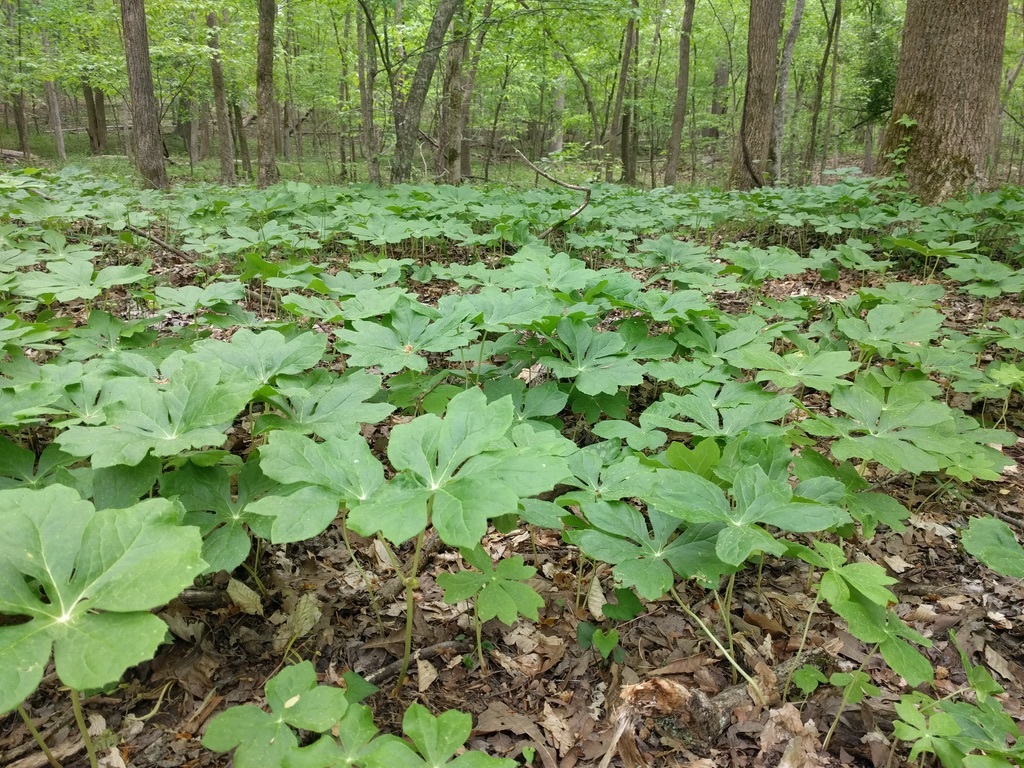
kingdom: Plantae
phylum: Tracheophyta
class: Magnoliopsida
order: Ranunculales
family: Berberidaceae
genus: Podophyllum
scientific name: Podophyllum peltatum
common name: Wild mandrake
